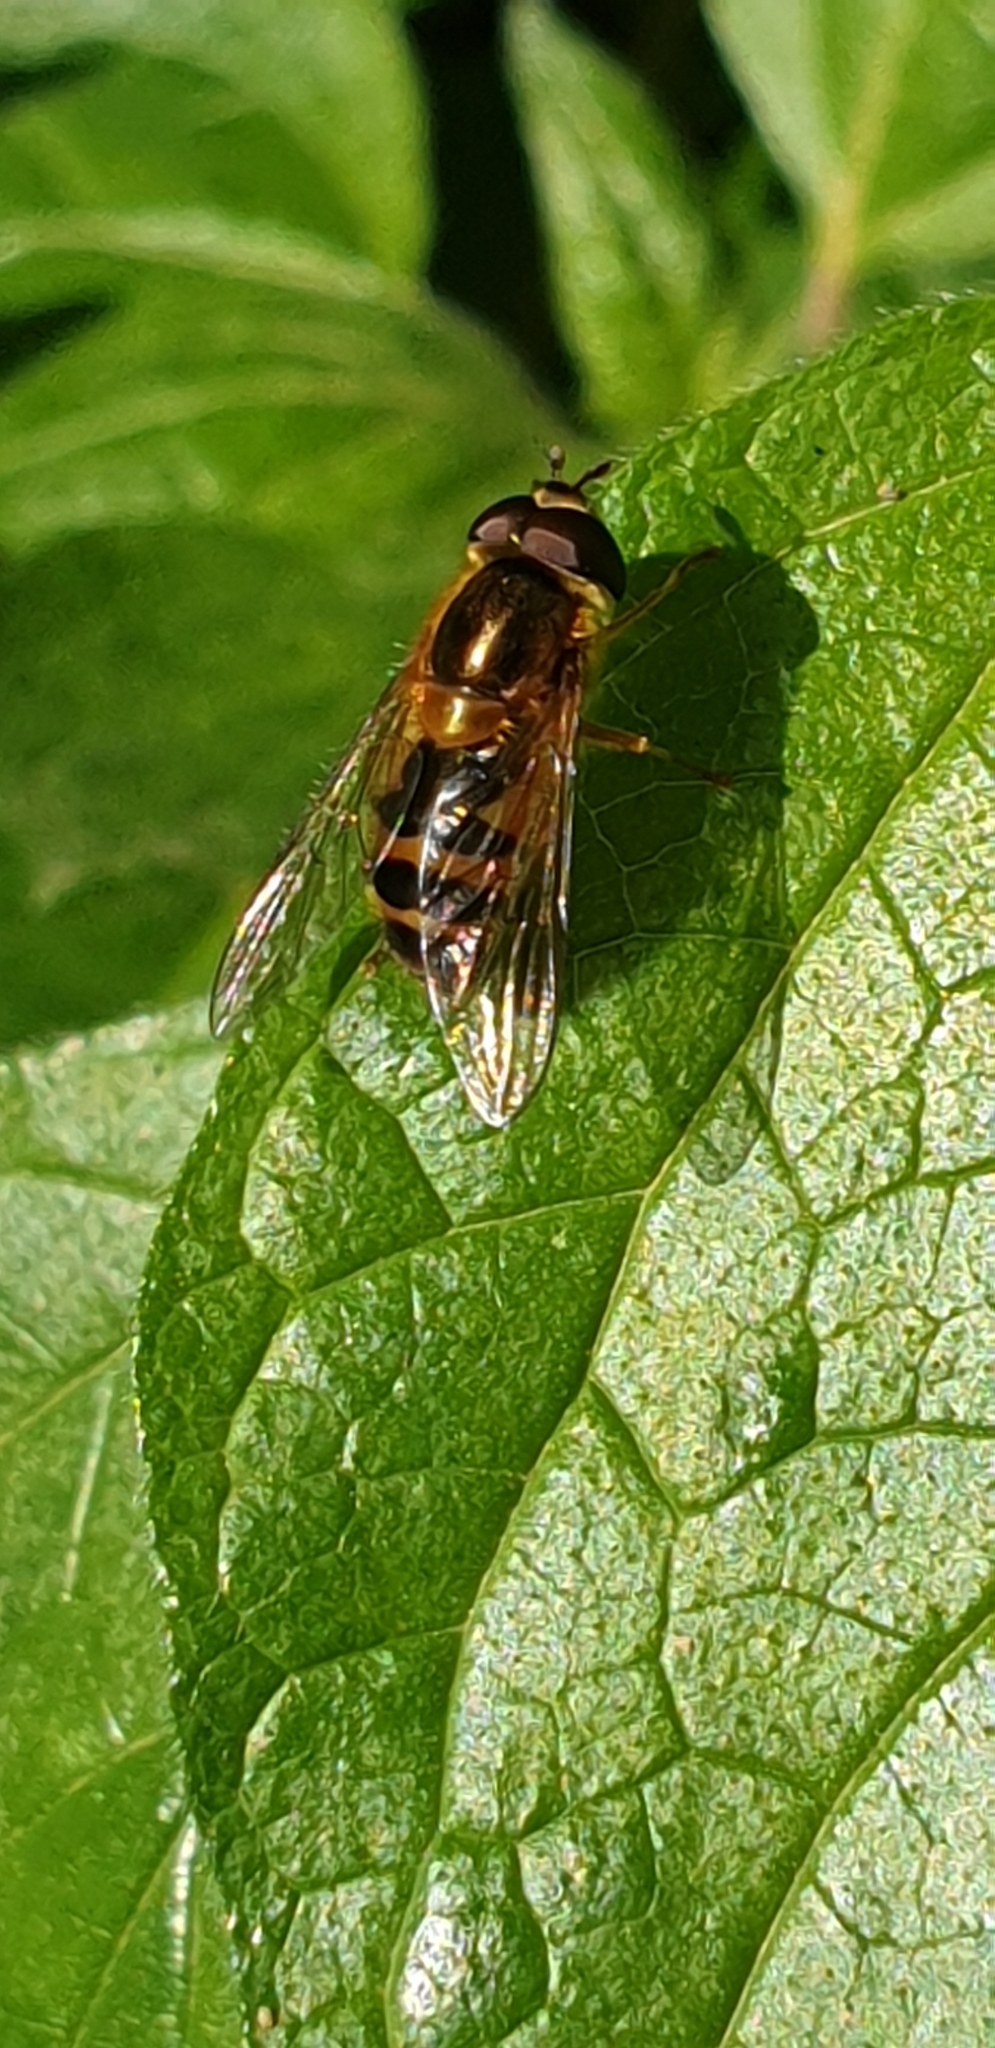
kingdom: Animalia
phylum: Arthropoda
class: Insecta
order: Diptera
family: Syrphidae
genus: Epistrophe
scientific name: Epistrophe eligans
